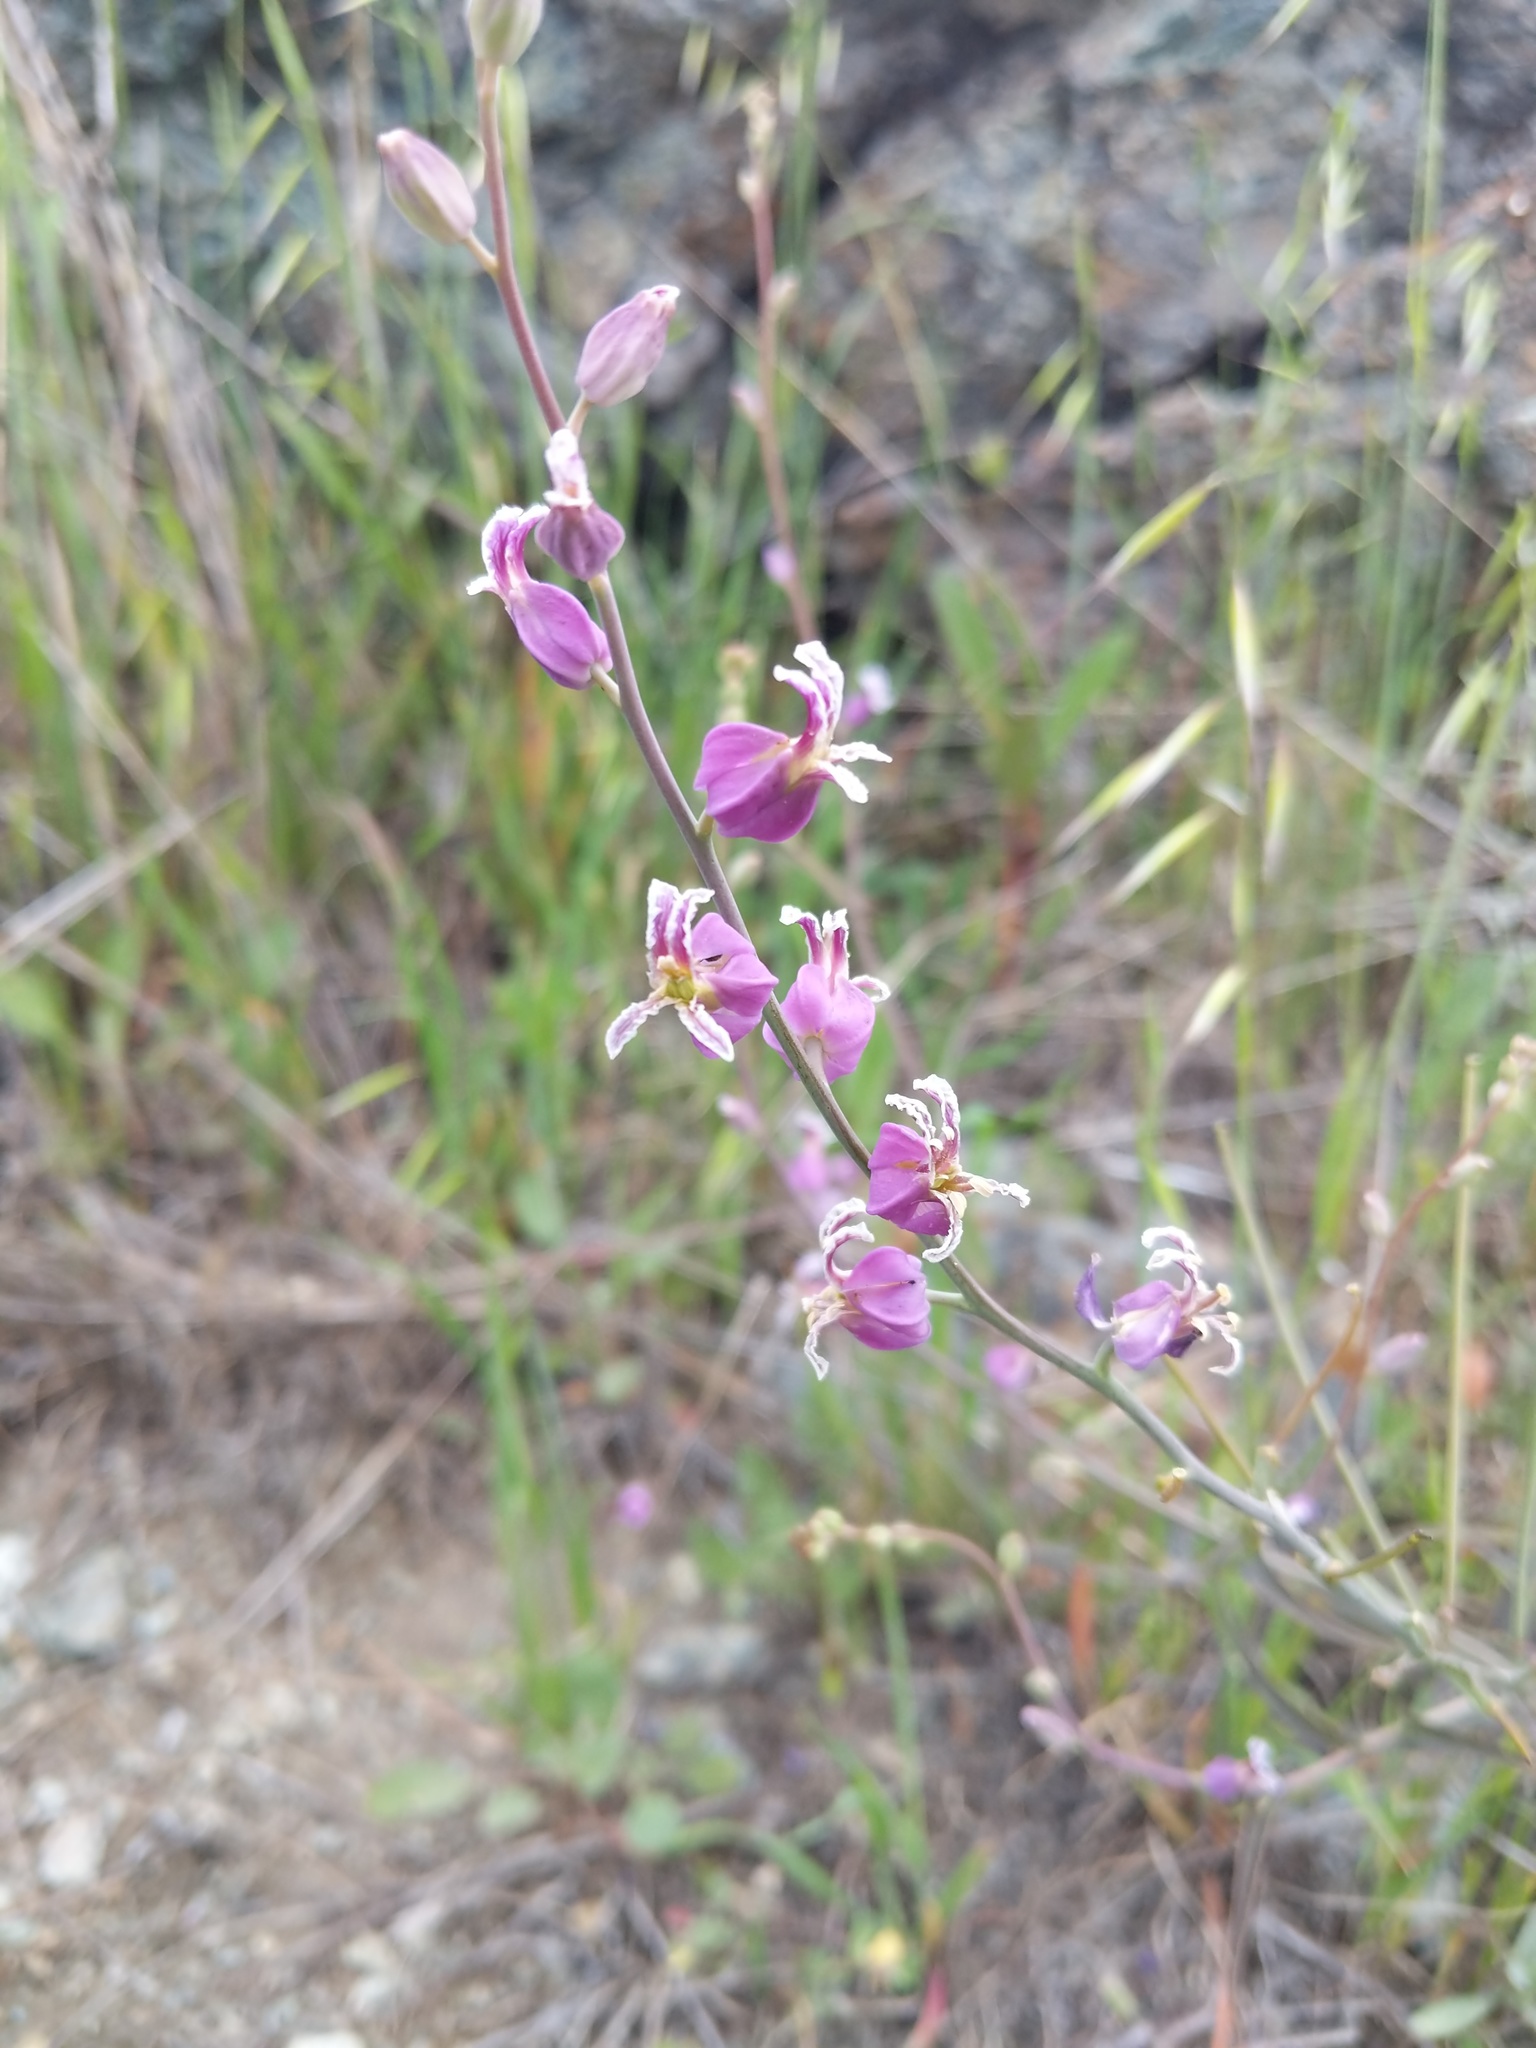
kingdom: Plantae
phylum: Tracheophyta
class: Magnoliopsida
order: Brassicales
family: Brassicaceae
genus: Streptanthus
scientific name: Streptanthus glandulosus
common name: Jewel-flower
